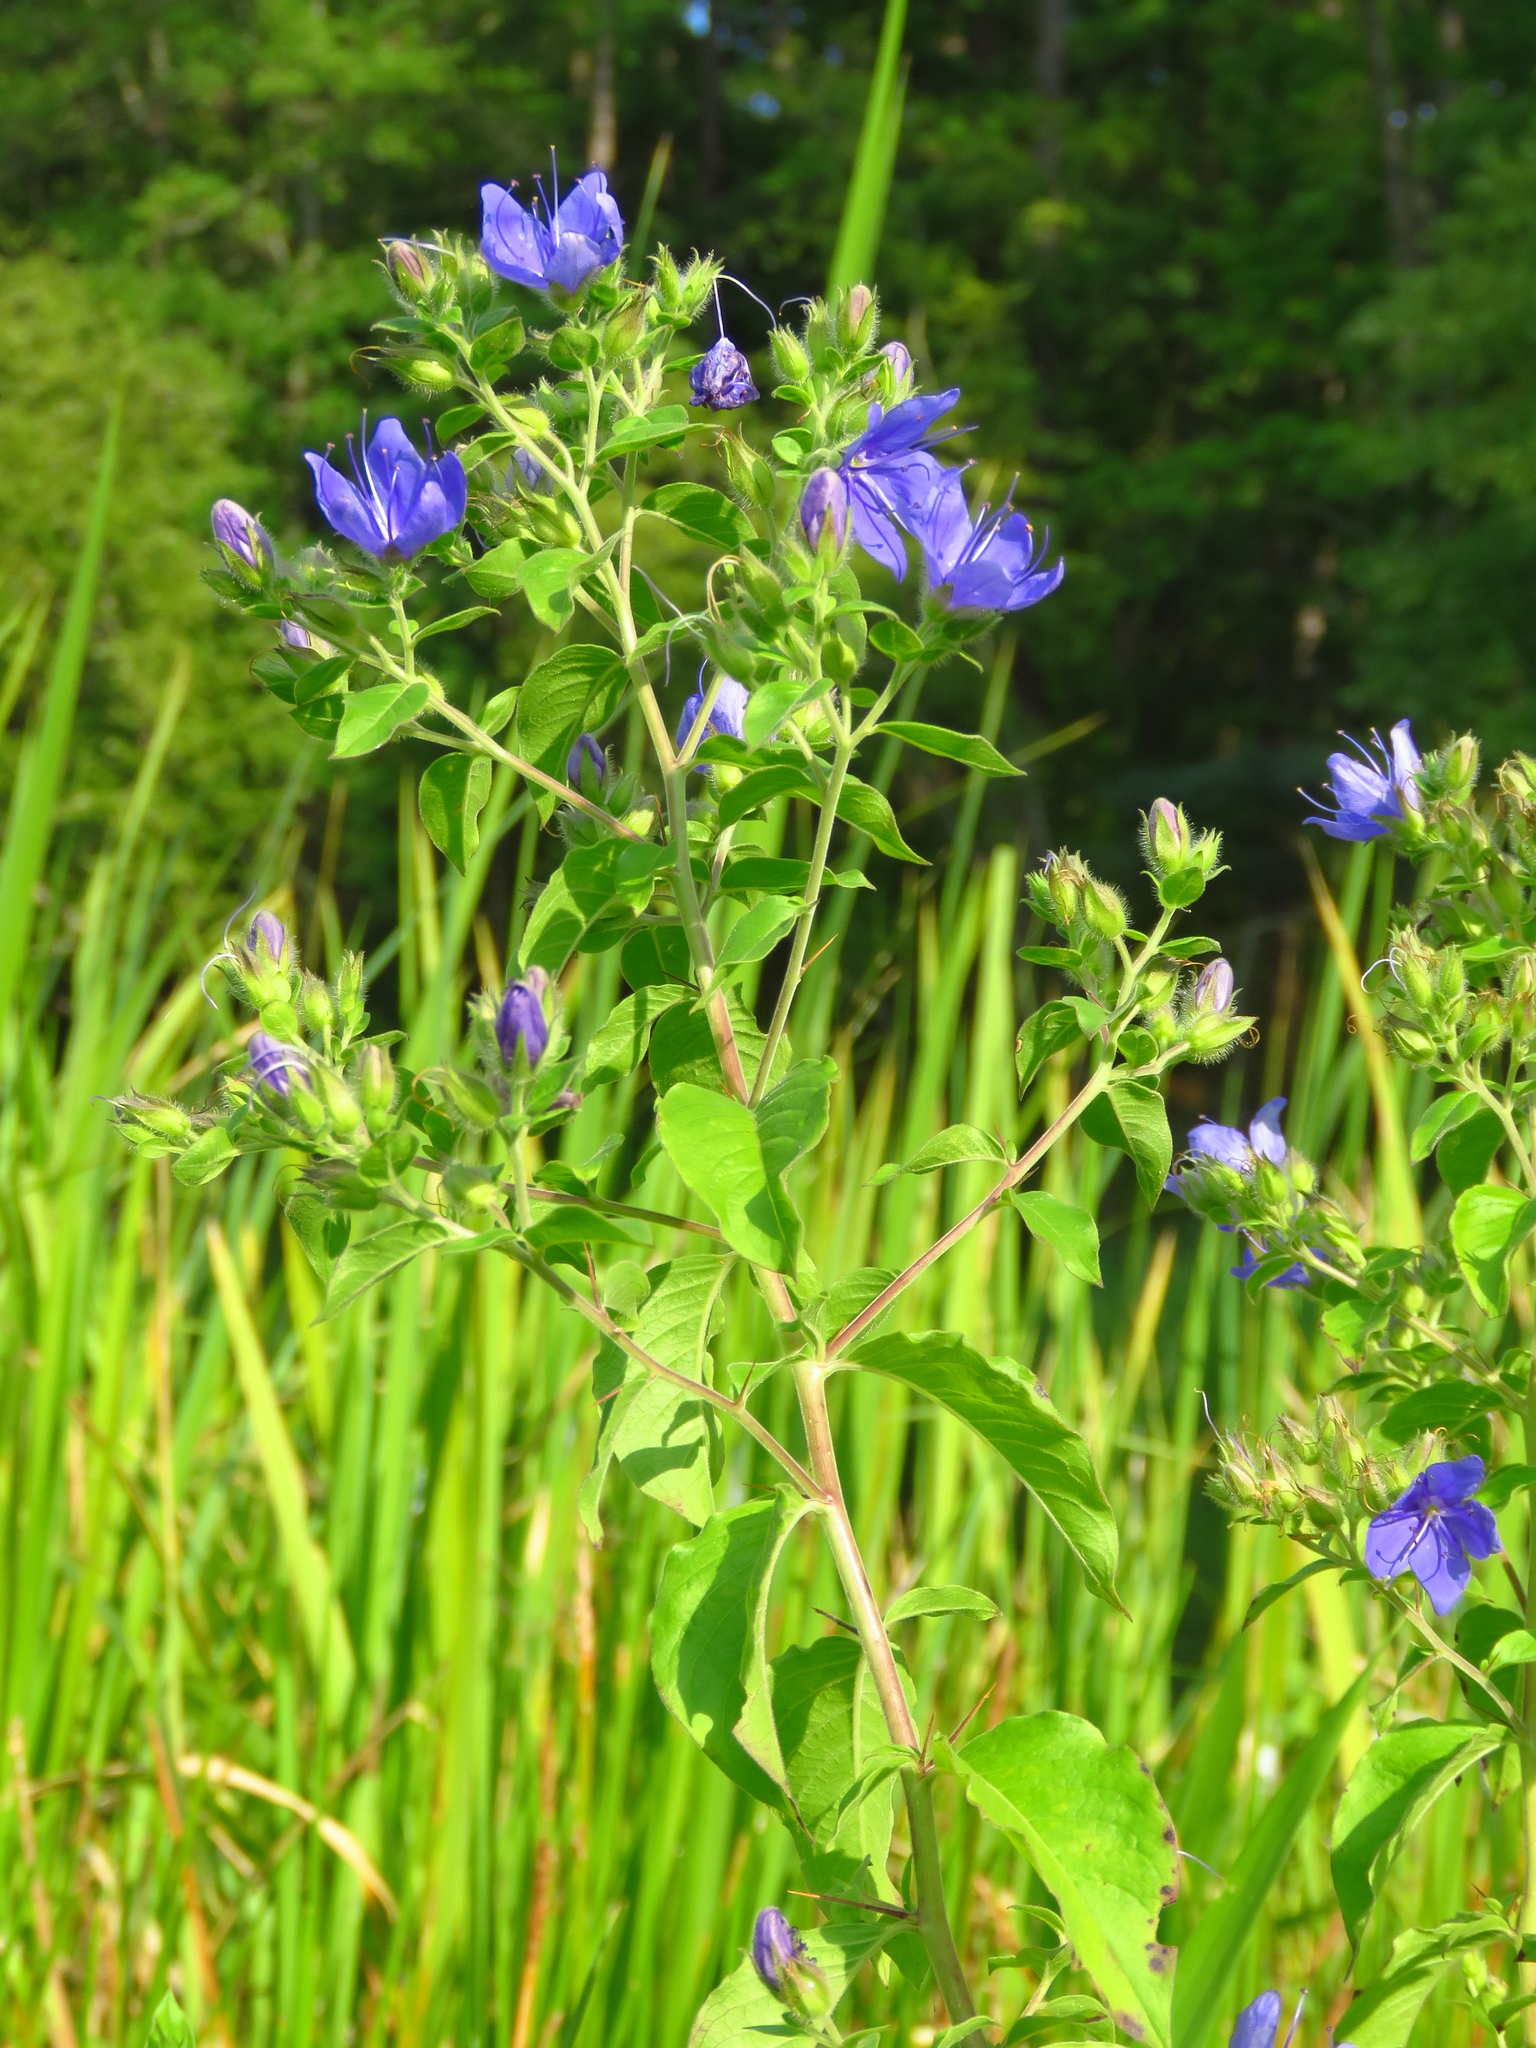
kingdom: Plantae
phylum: Tracheophyta
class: Magnoliopsida
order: Solanales
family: Hydroleaceae
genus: Hydrolea
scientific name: Hydrolea ovata
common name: Ovate false fiddleleaf
